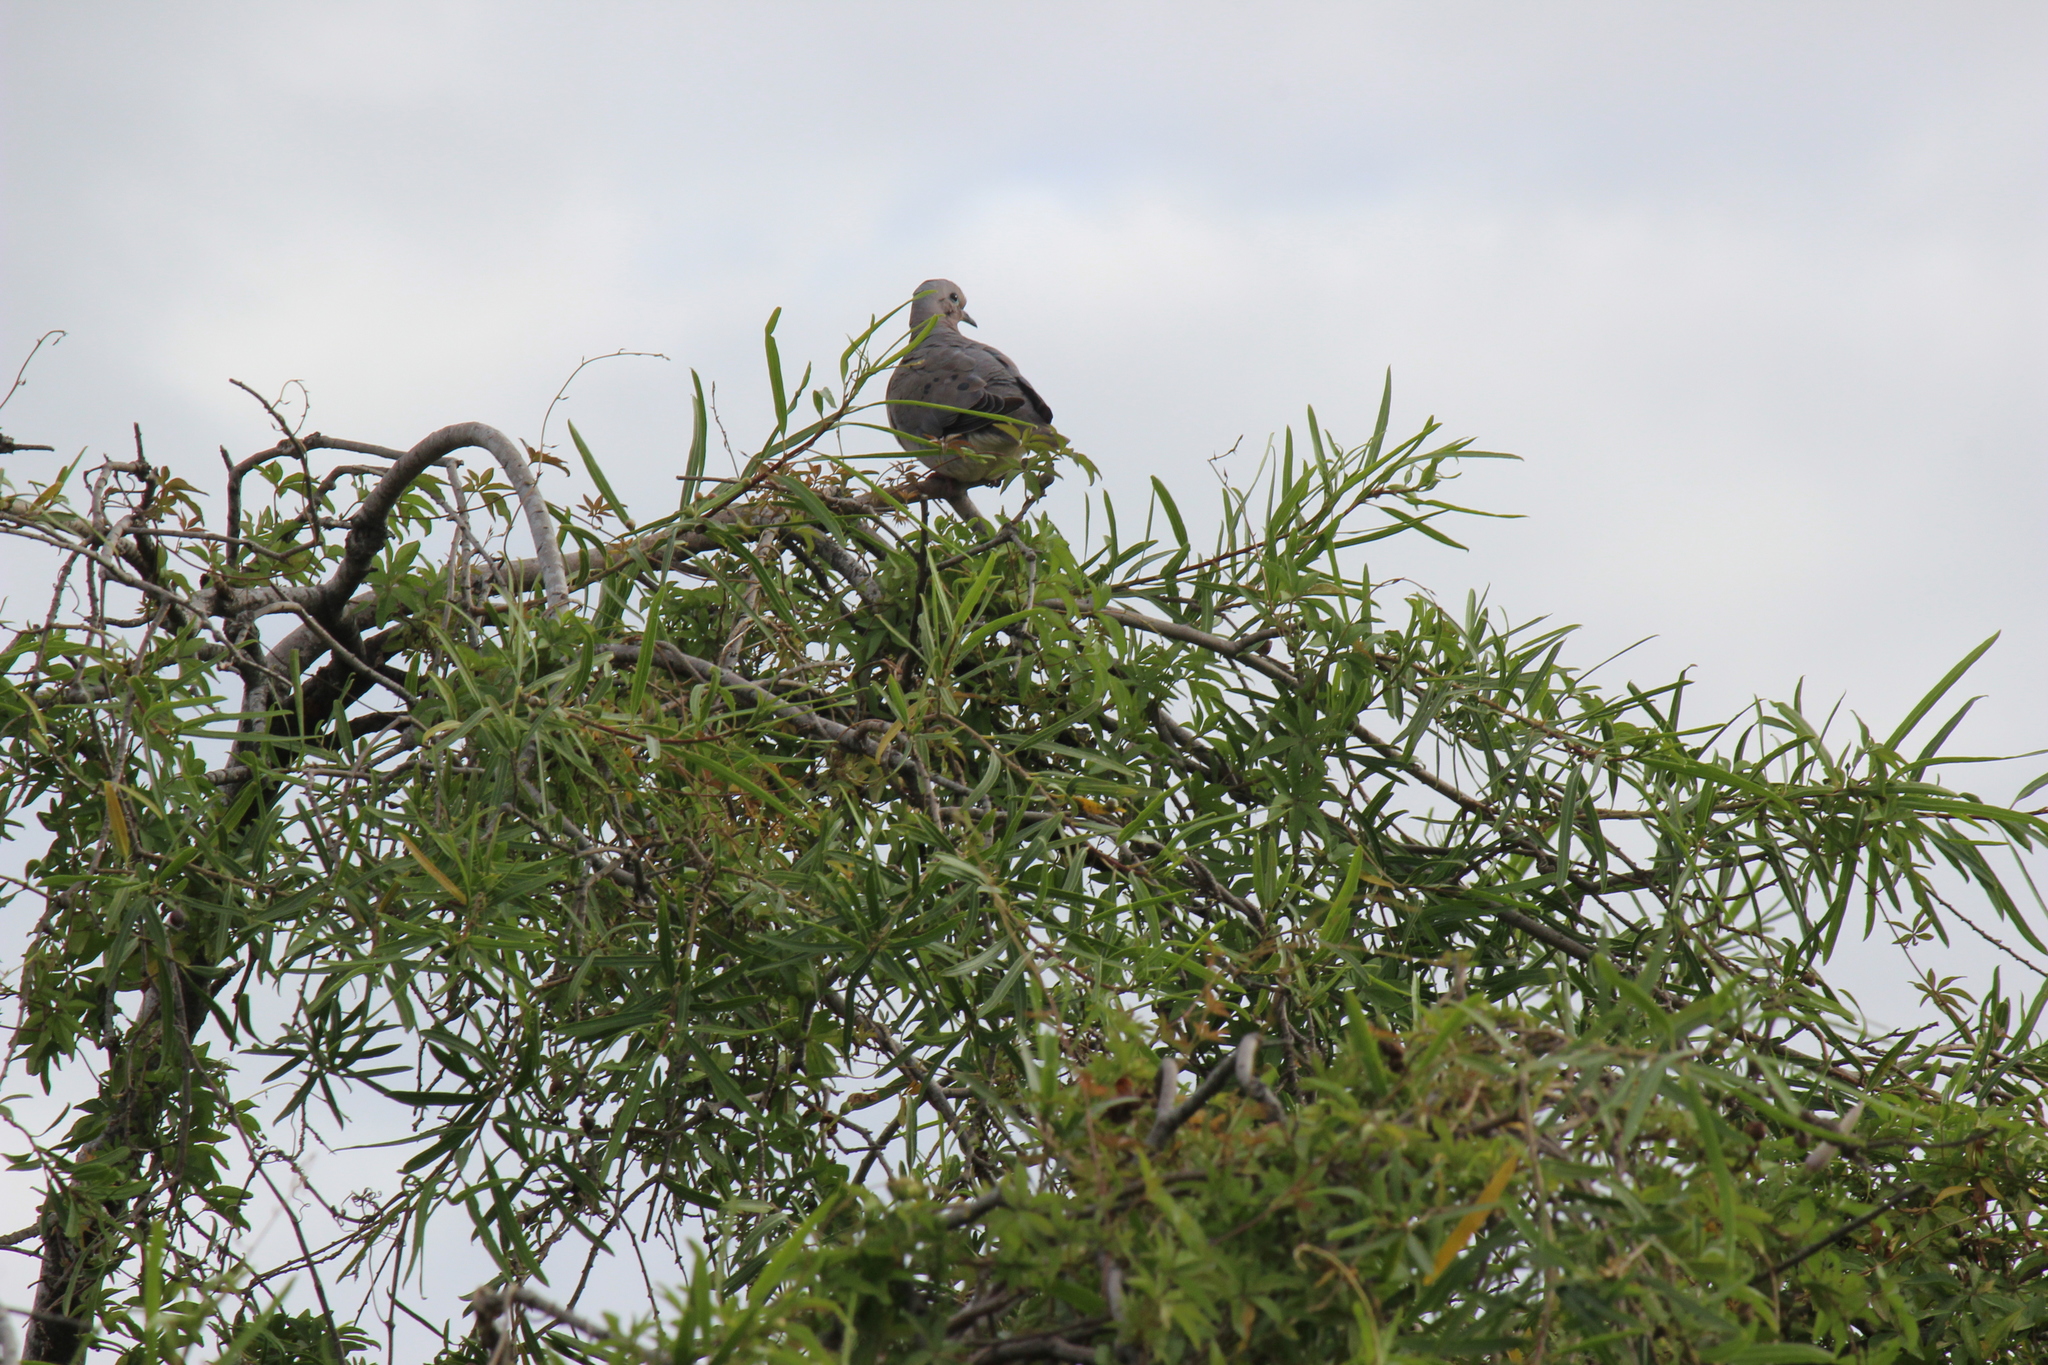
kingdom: Animalia
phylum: Chordata
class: Aves
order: Columbiformes
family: Columbidae
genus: Zenaida
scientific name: Zenaida auriculata
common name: Eared dove
